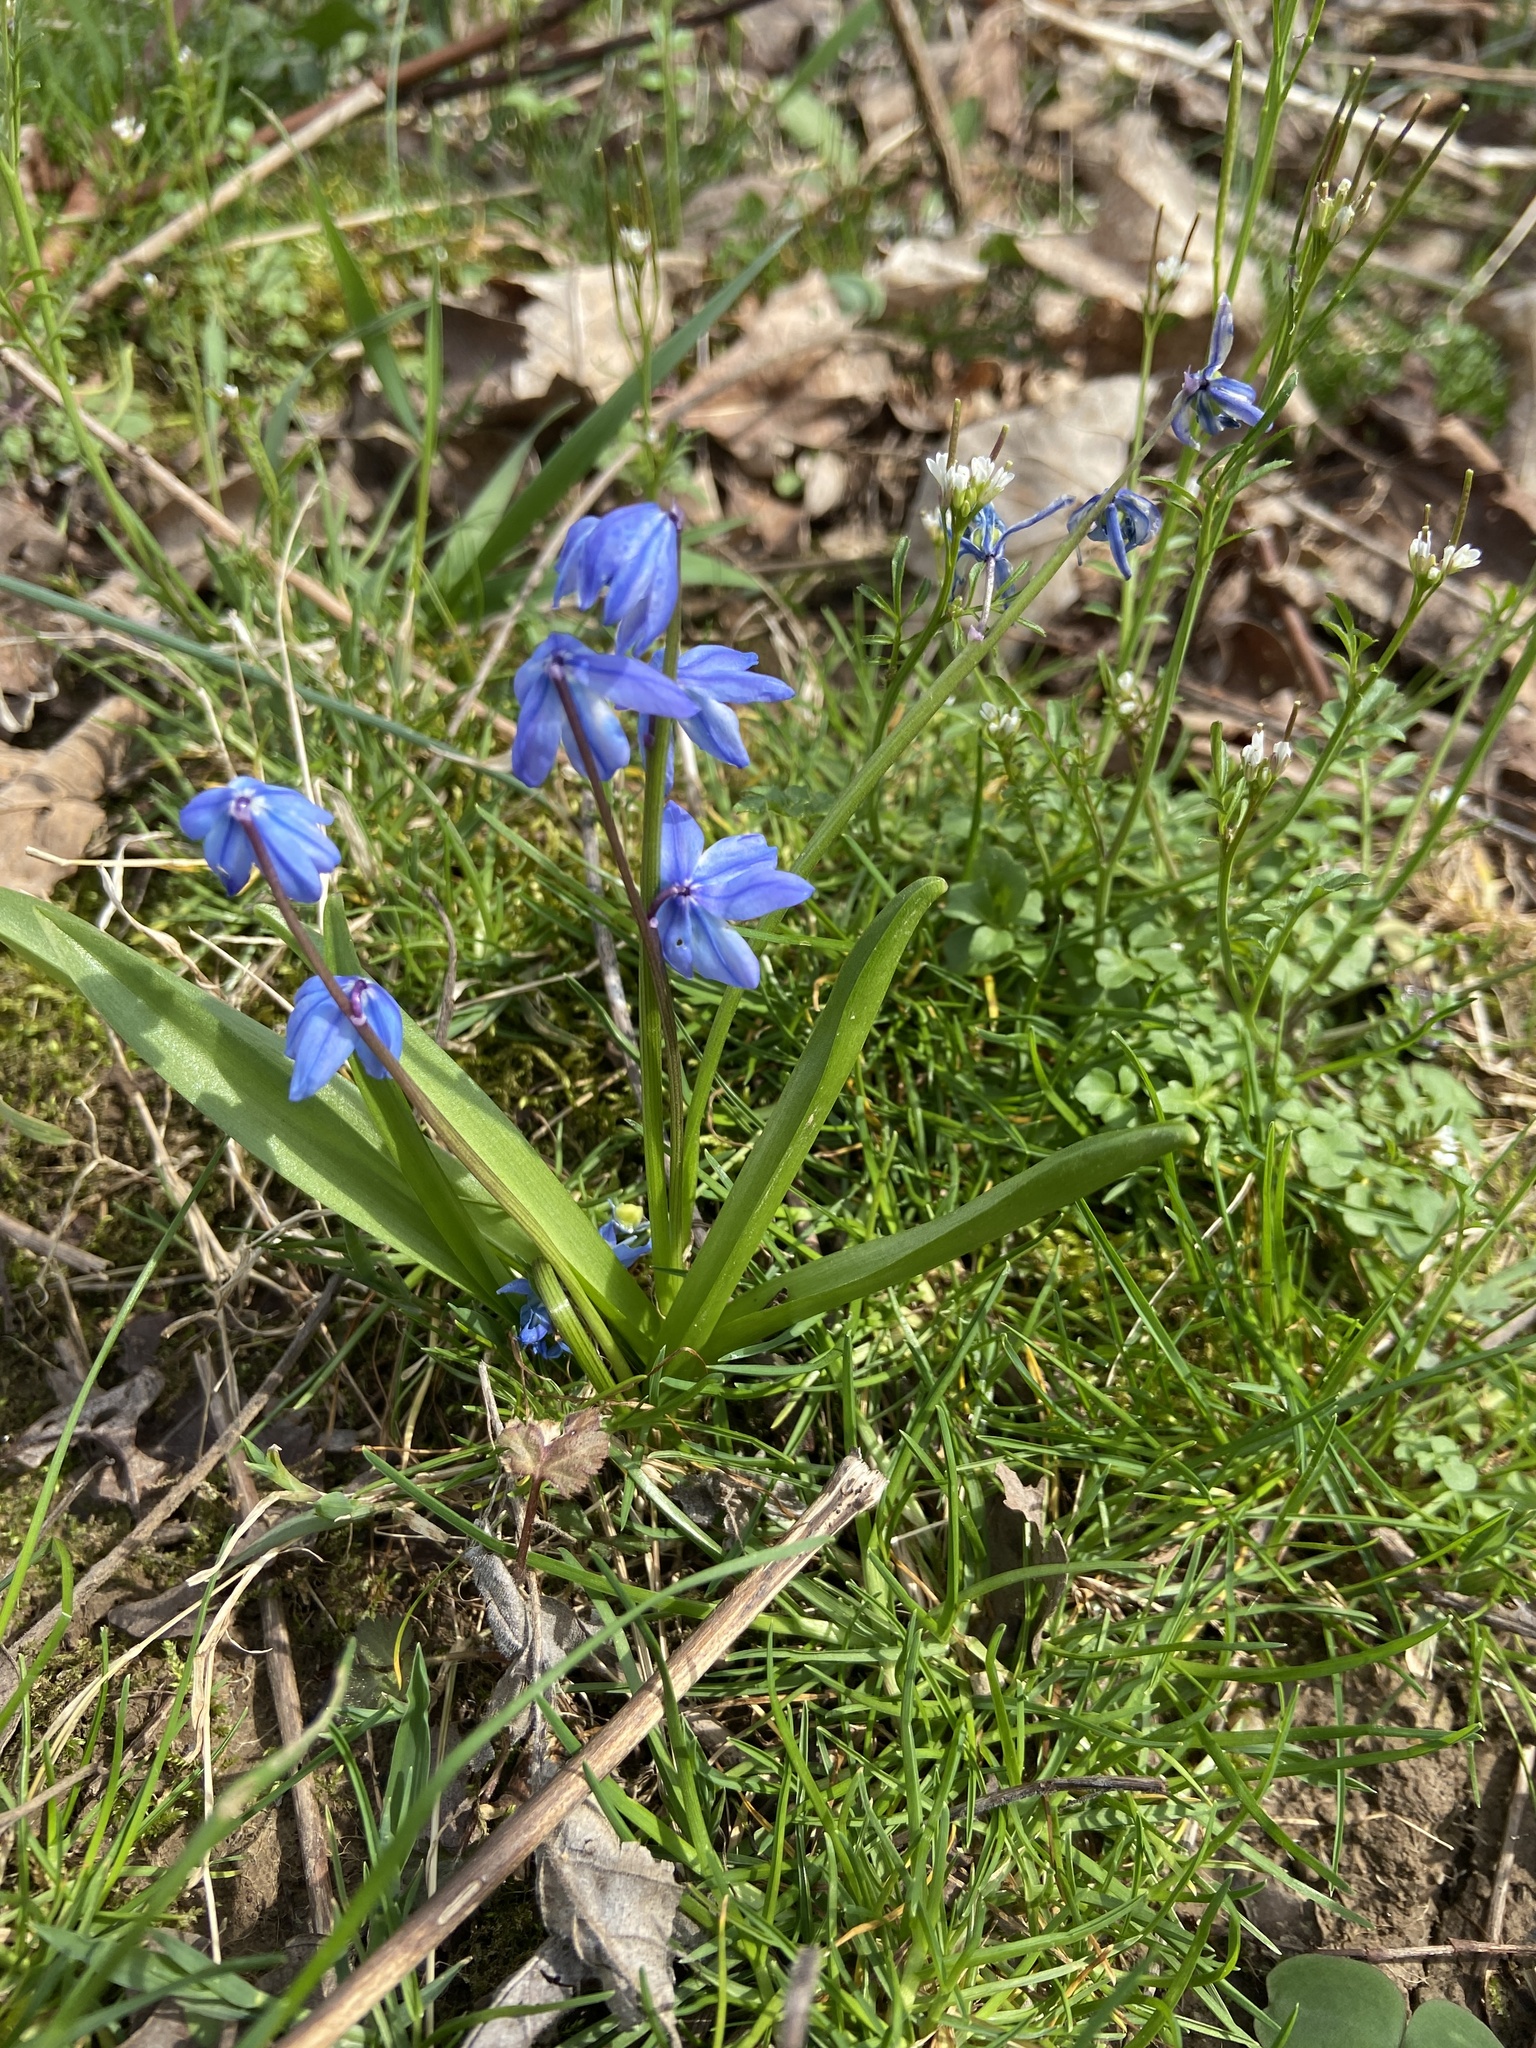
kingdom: Plantae
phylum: Tracheophyta
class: Liliopsida
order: Asparagales
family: Asparagaceae
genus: Scilla
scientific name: Scilla siberica
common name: Siberian squill
